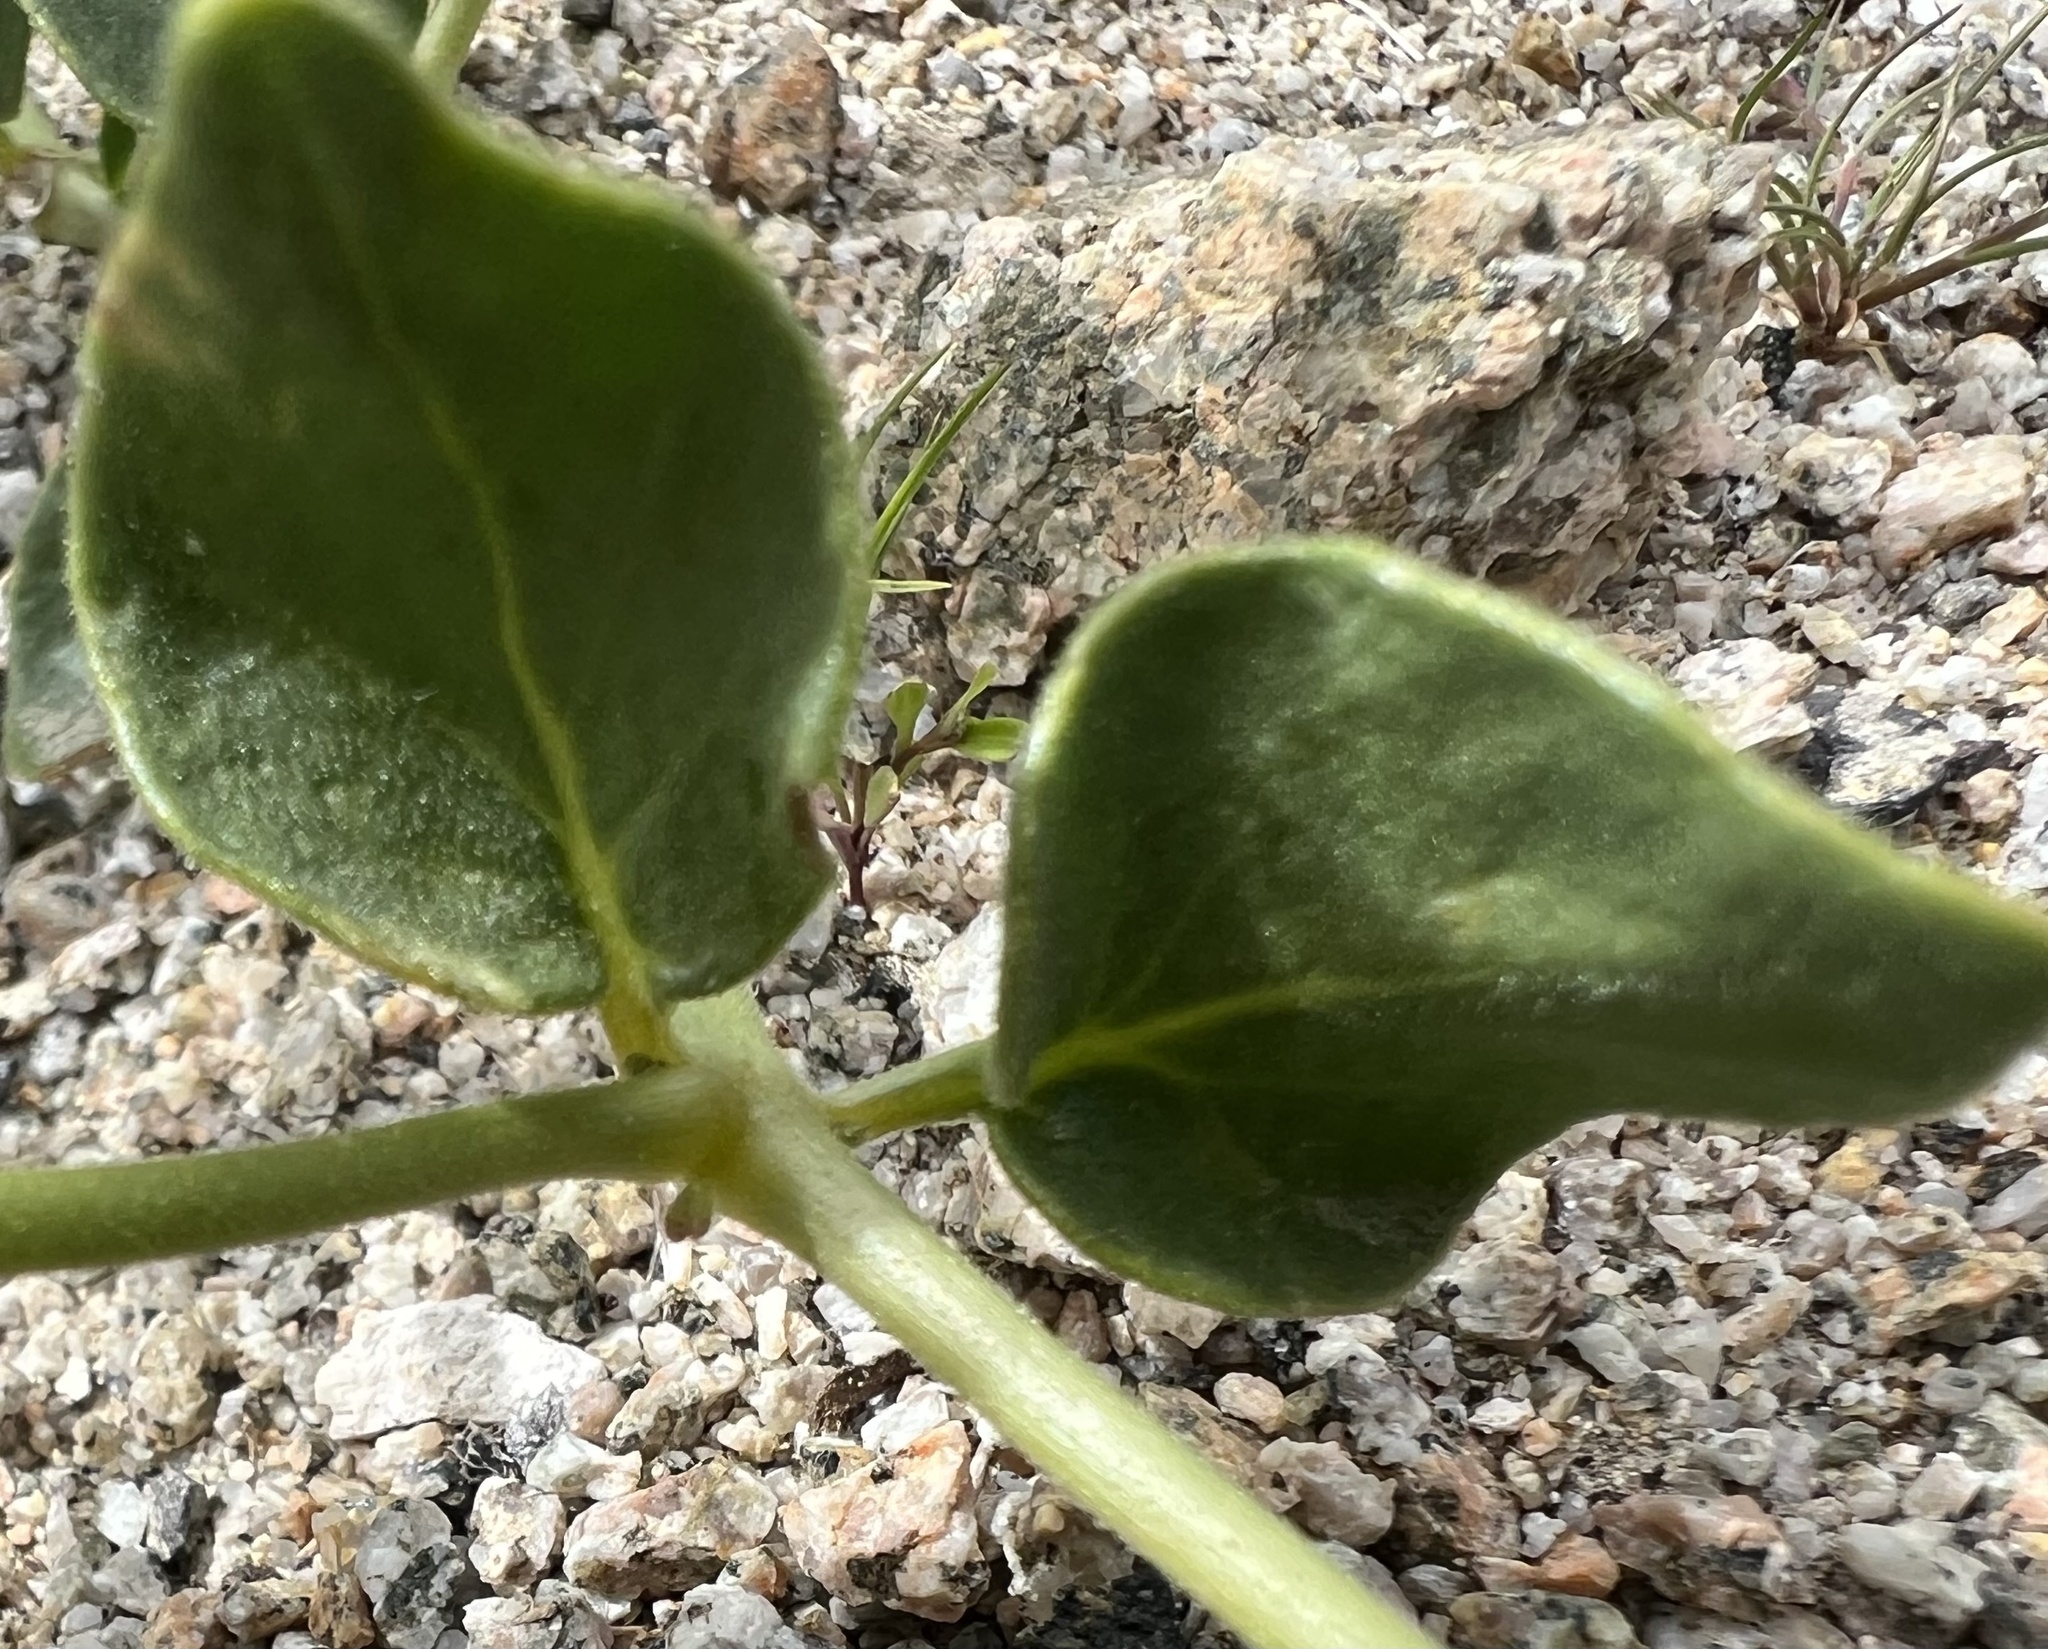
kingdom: Plantae
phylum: Tracheophyta
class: Magnoliopsida
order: Caryophyllales
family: Nyctaginaceae
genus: Mirabilis
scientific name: Mirabilis laevis
